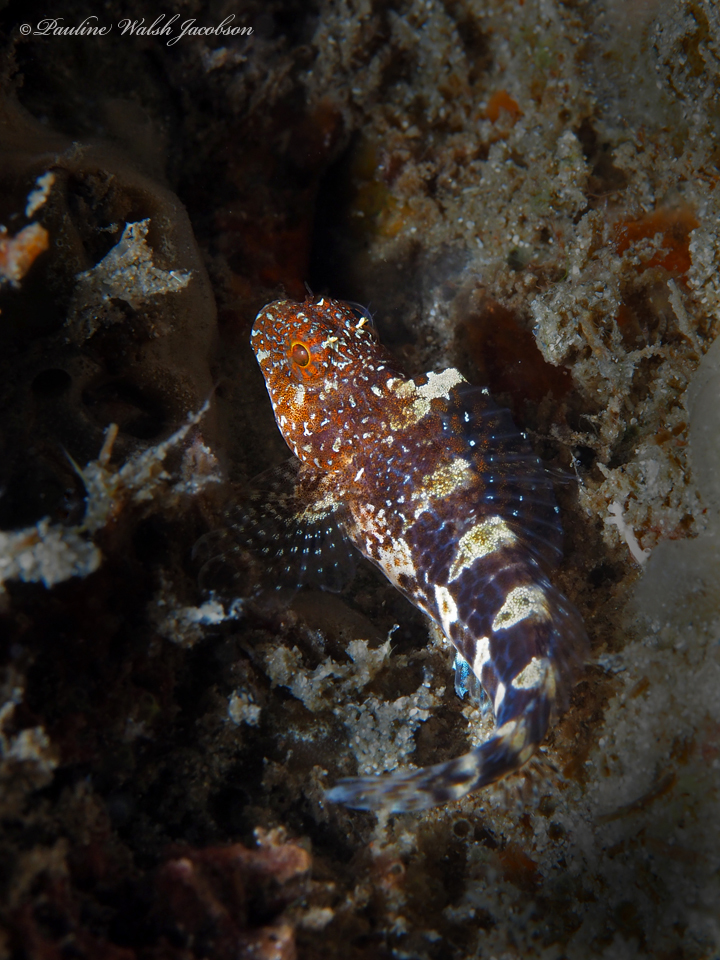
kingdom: Animalia
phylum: Chordata
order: Perciformes
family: Blenniidae
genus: Hypleurochilus
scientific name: Hypleurochilus bermudensis
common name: Barred blenny
